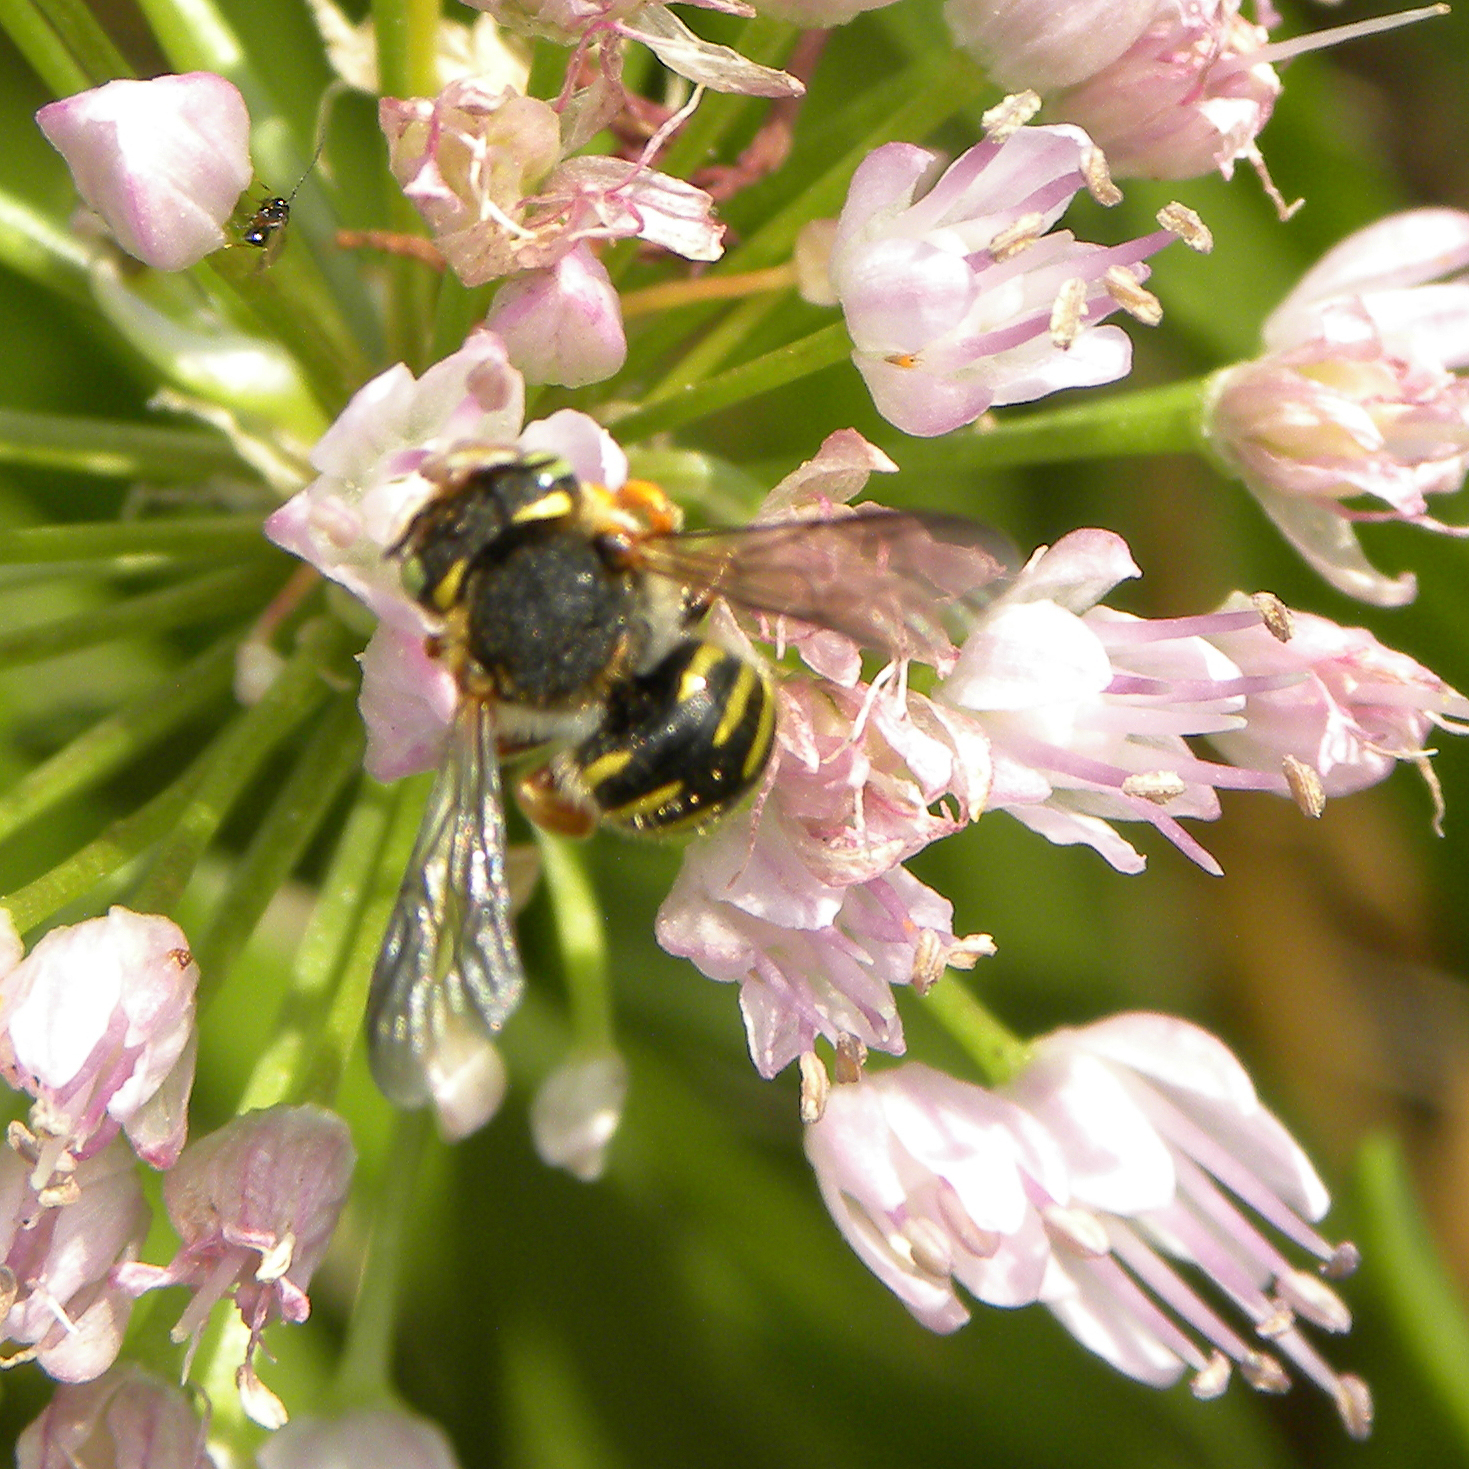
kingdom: Animalia
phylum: Arthropoda
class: Insecta
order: Hymenoptera
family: Megachilidae
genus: Anthidium
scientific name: Anthidium oblongatum
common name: Oblong wool carder bee
